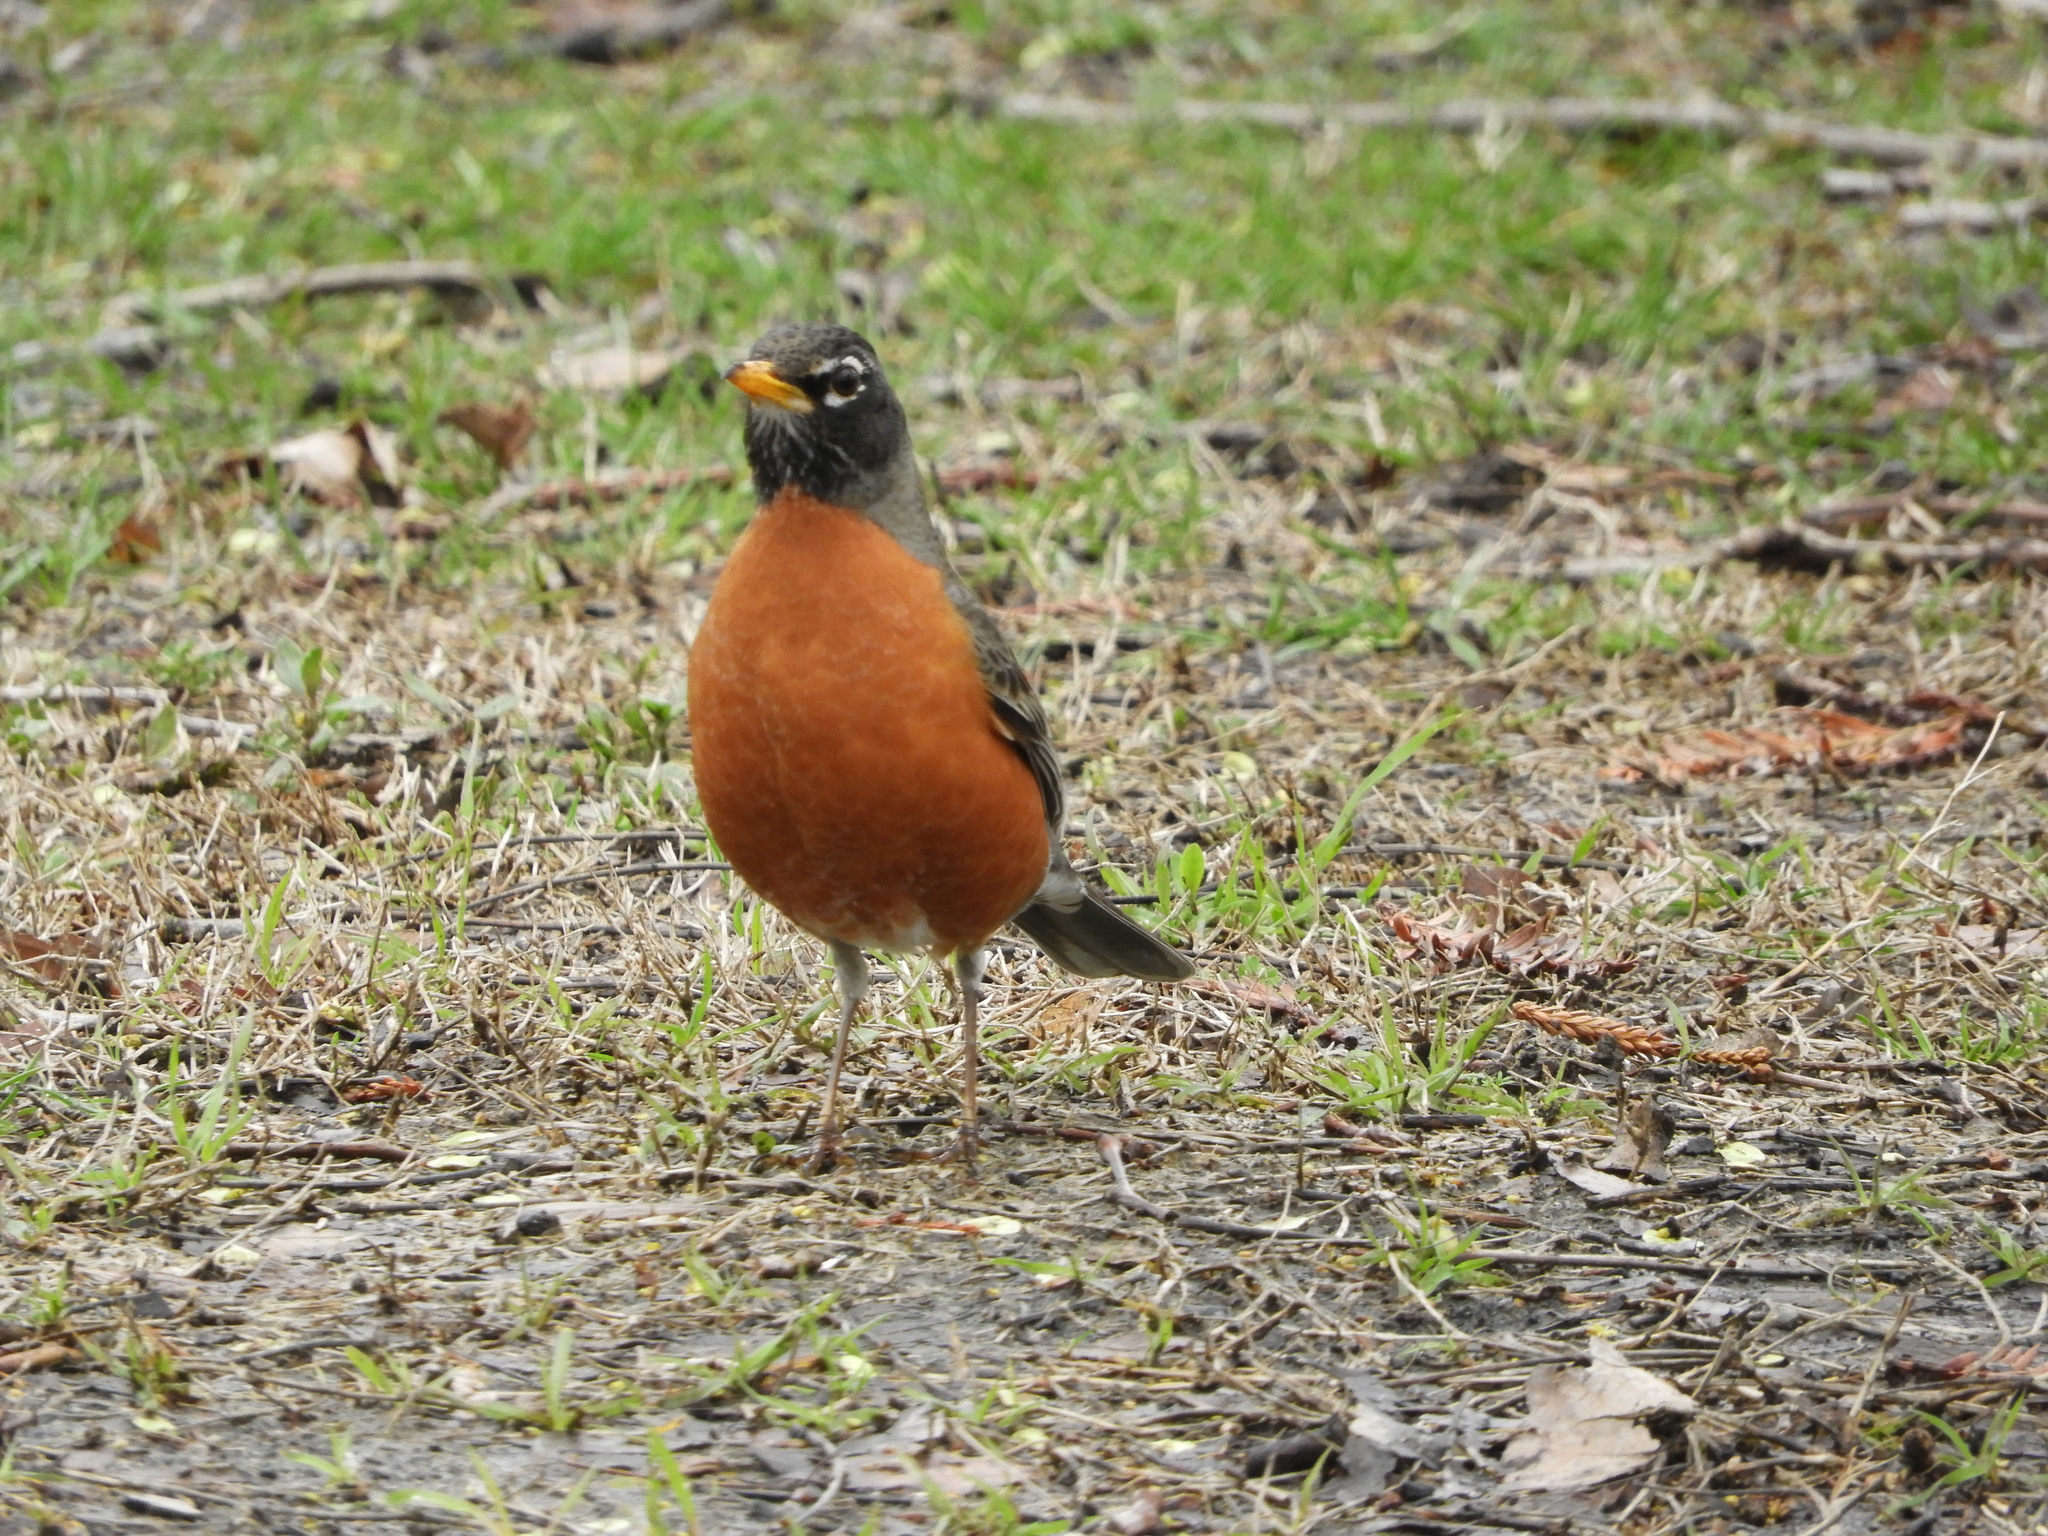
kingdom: Animalia
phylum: Chordata
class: Aves
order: Passeriformes
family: Turdidae
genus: Turdus
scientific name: Turdus migratorius
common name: American robin
